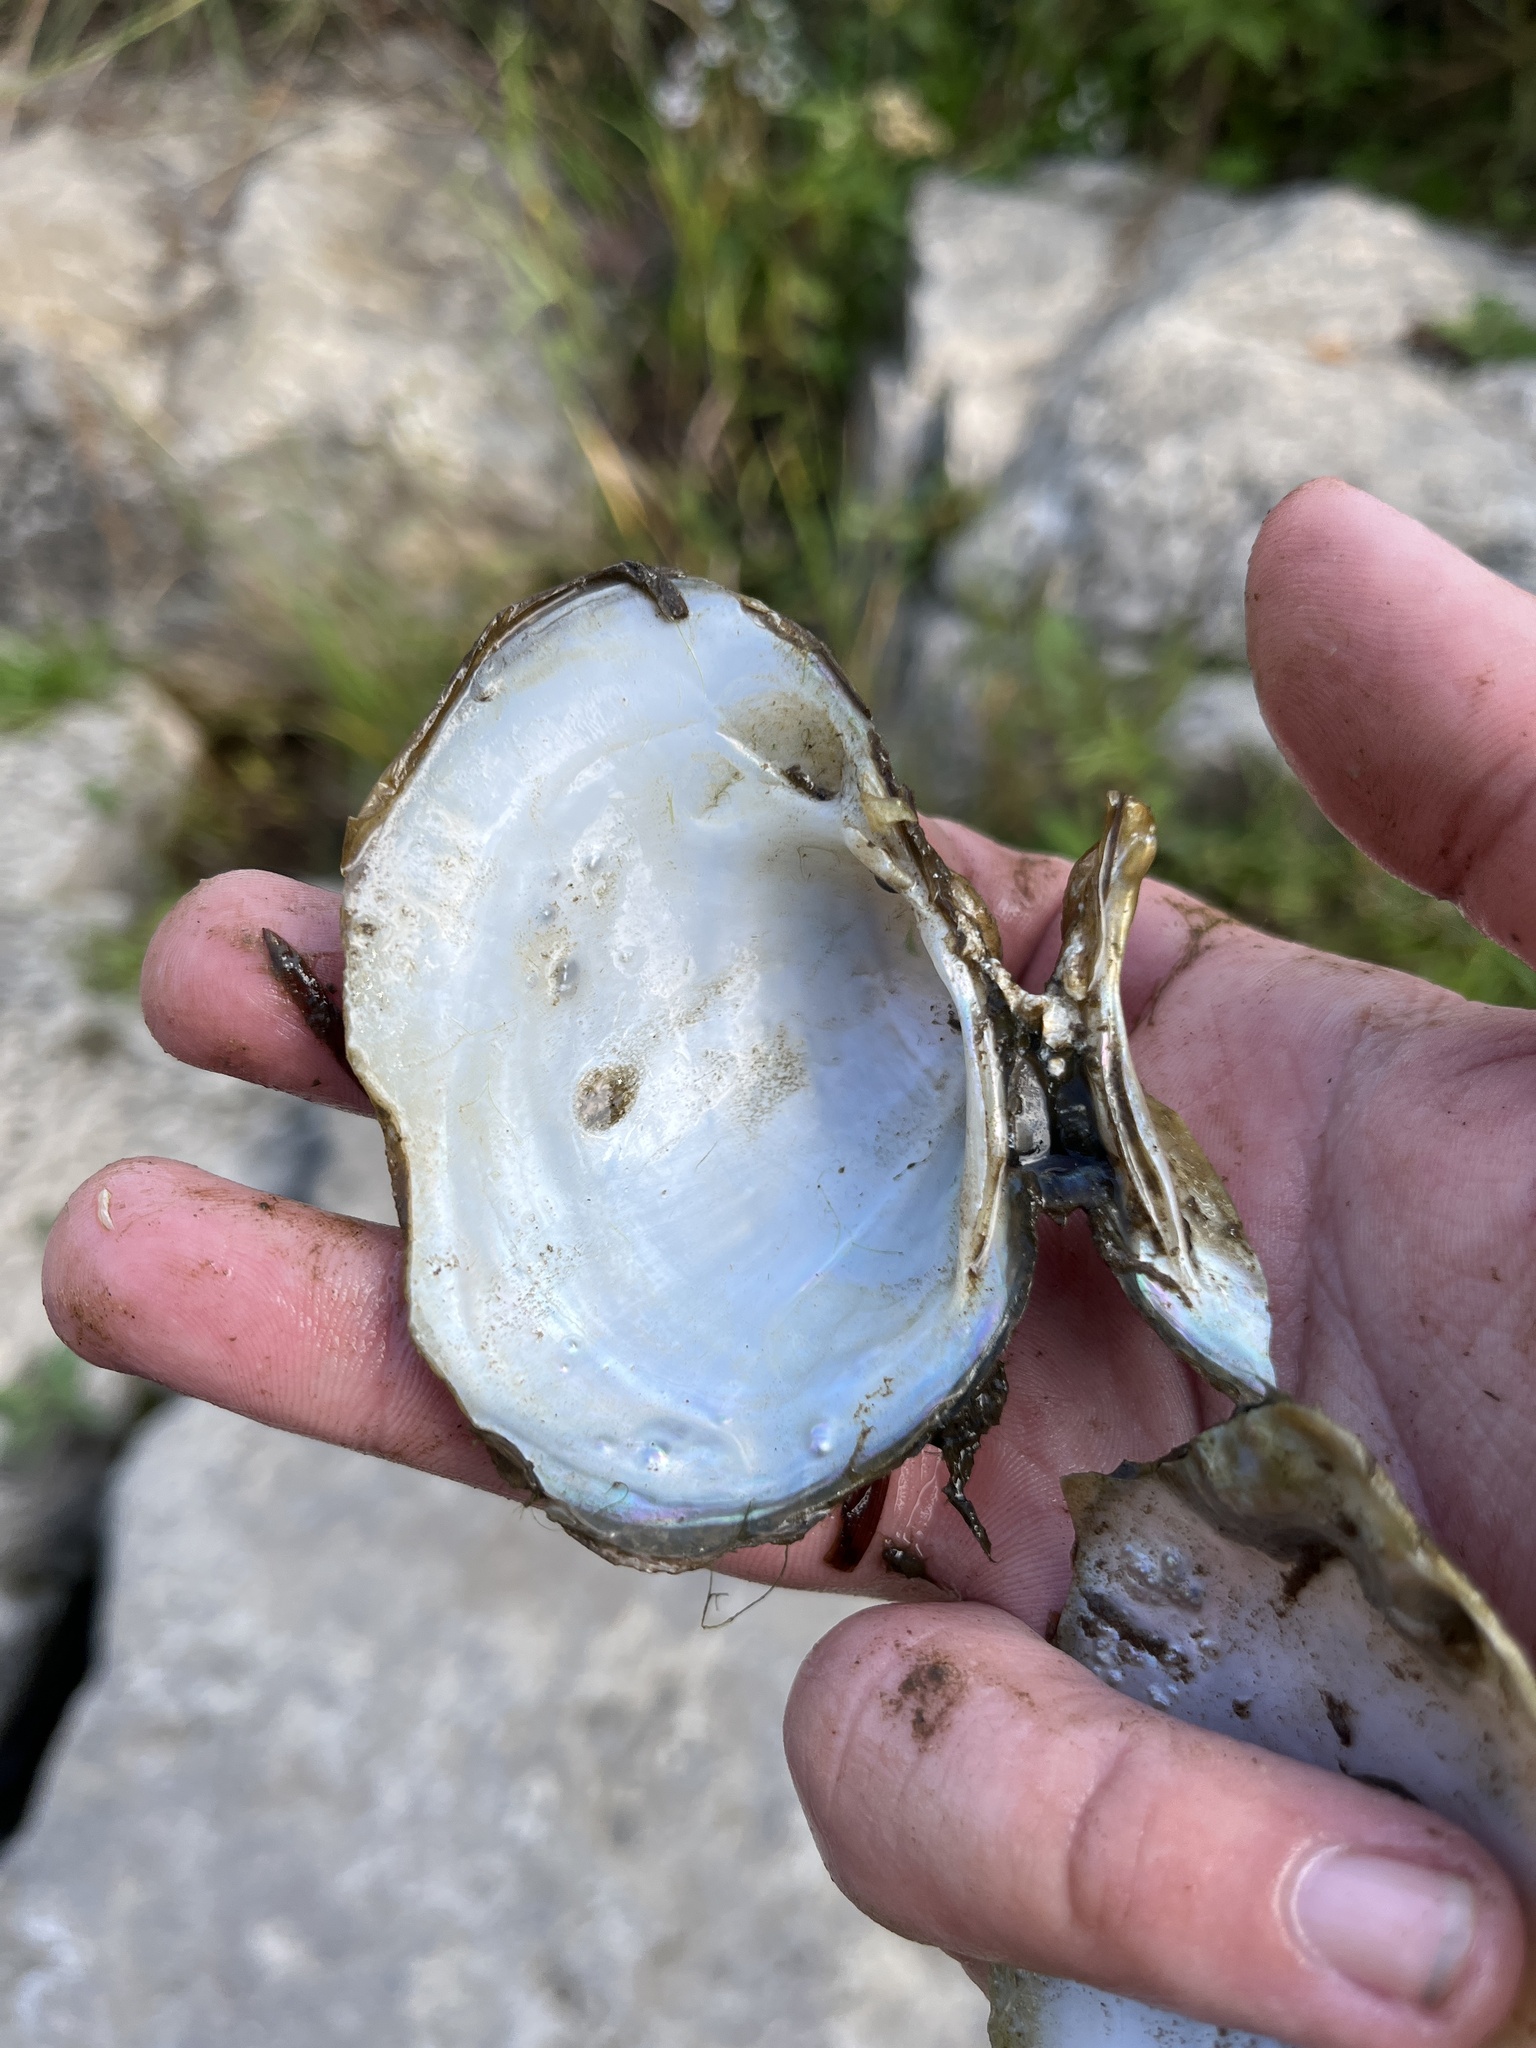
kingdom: Animalia
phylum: Mollusca
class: Bivalvia
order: Unionida
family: Unionidae
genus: Lampsilis
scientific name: Lampsilis cardium
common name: Plain pocketbook
